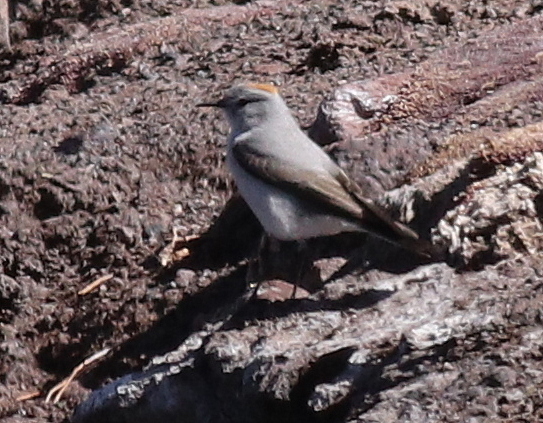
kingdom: Animalia
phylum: Chordata
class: Aves
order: Passeriformes
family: Tyrannidae
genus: Muscisaxicola
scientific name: Muscisaxicola rufivertex
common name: Rufous-naped ground tyrant
